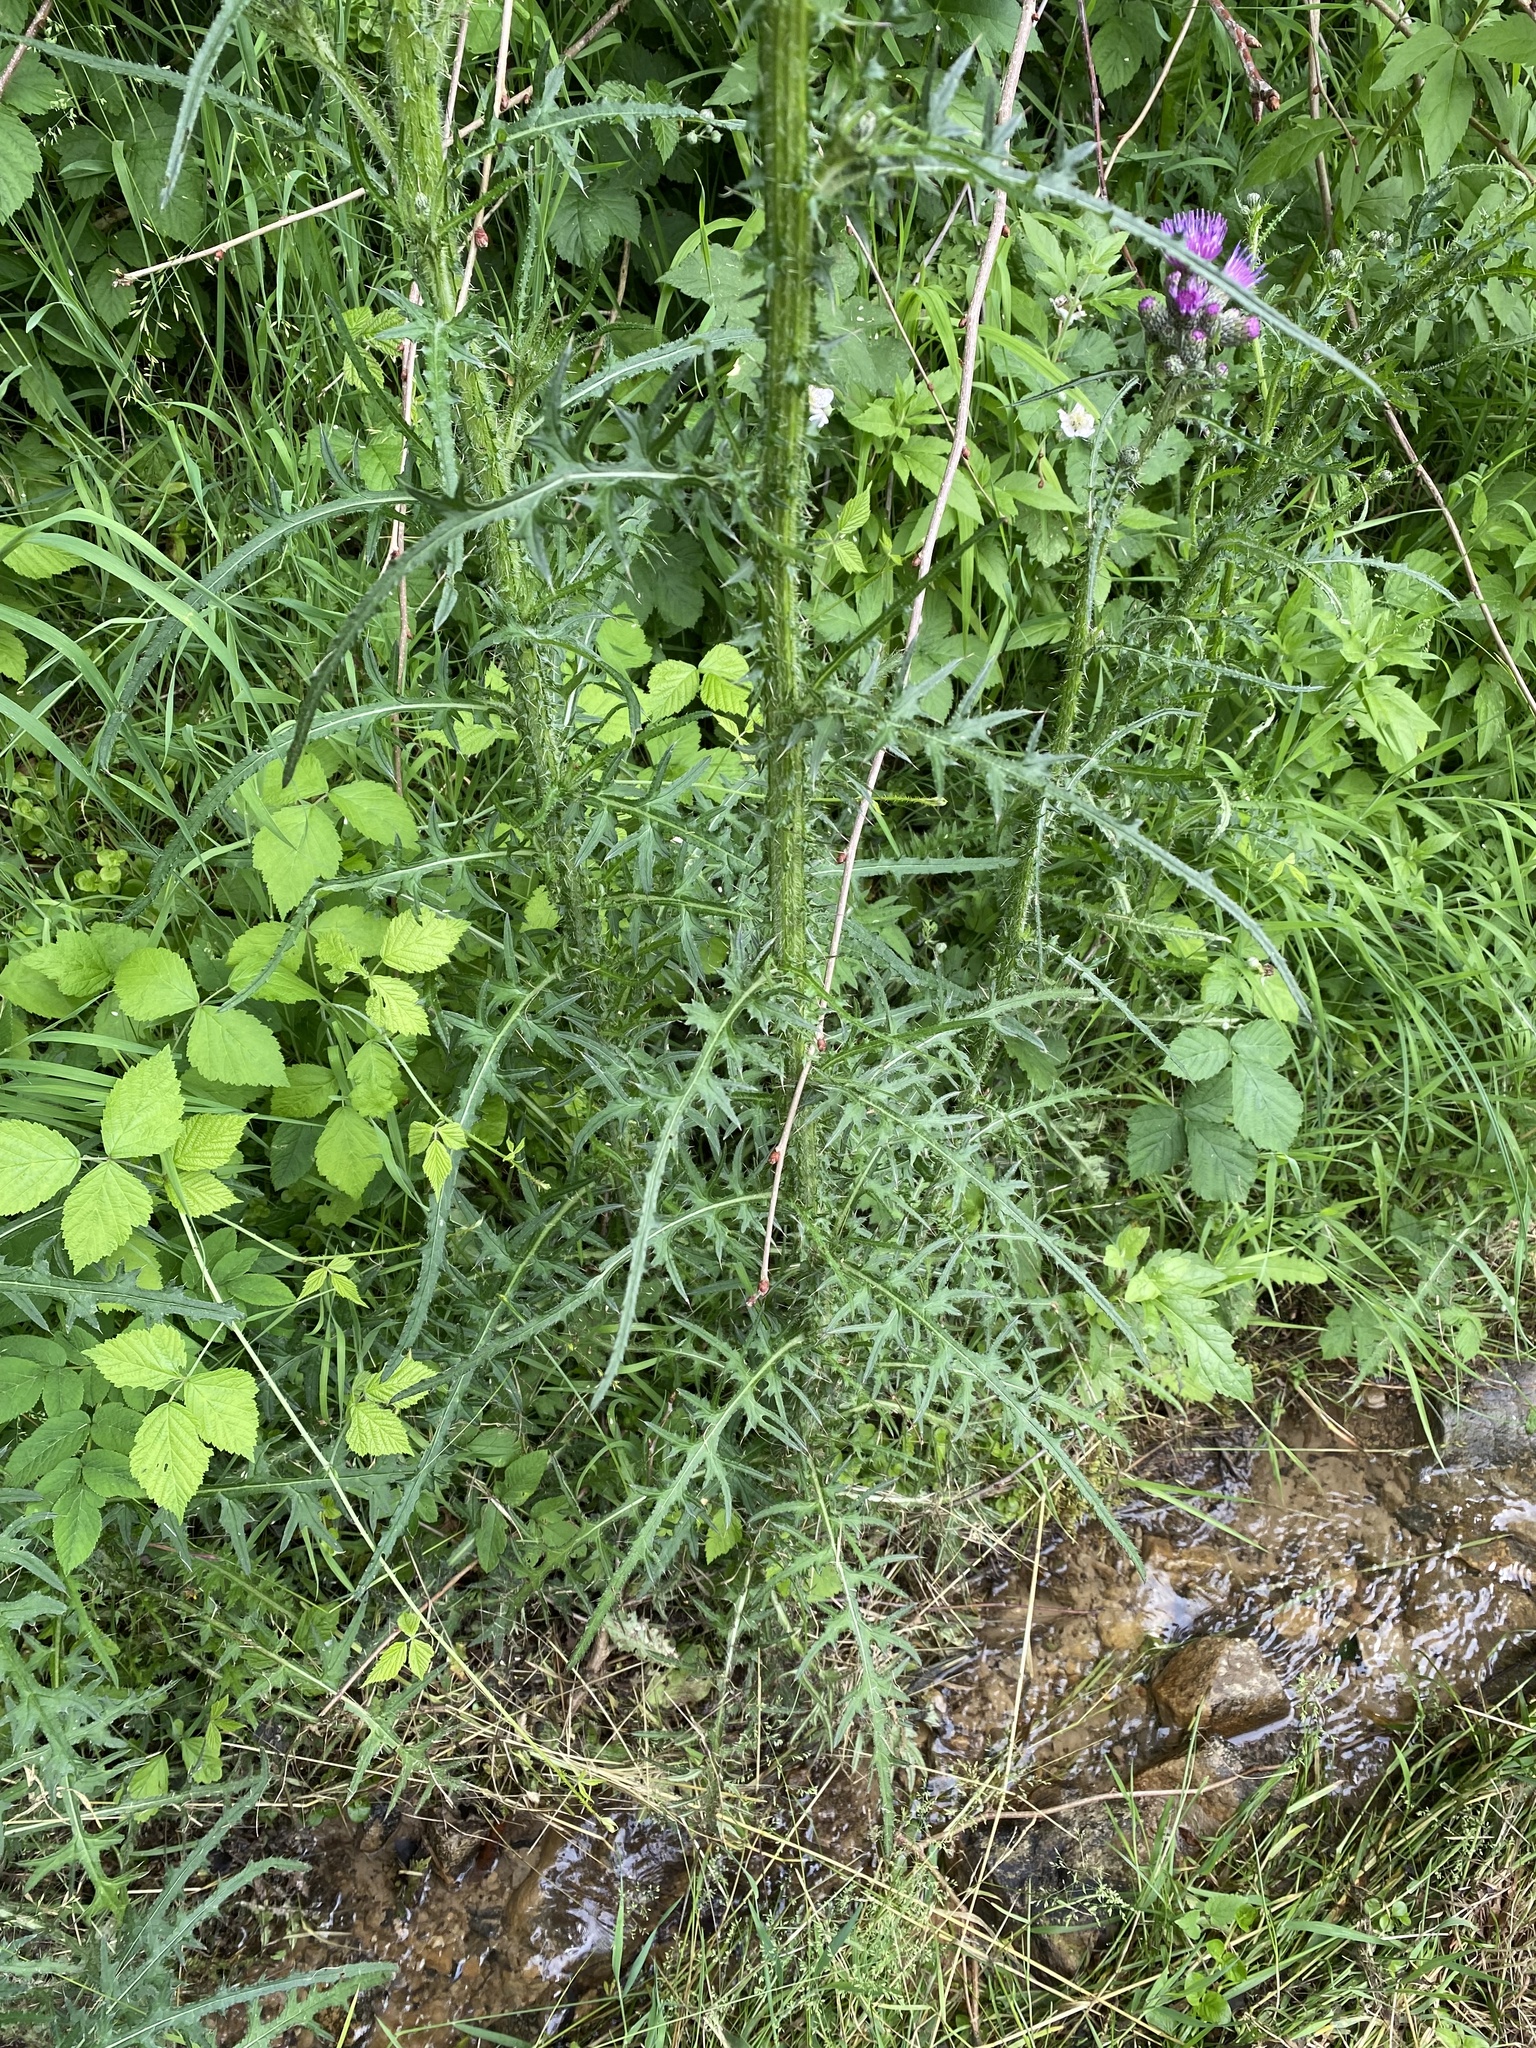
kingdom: Plantae
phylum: Tracheophyta
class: Magnoliopsida
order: Asterales
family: Asteraceae
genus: Cirsium
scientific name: Cirsium palustre
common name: Marsh thistle
